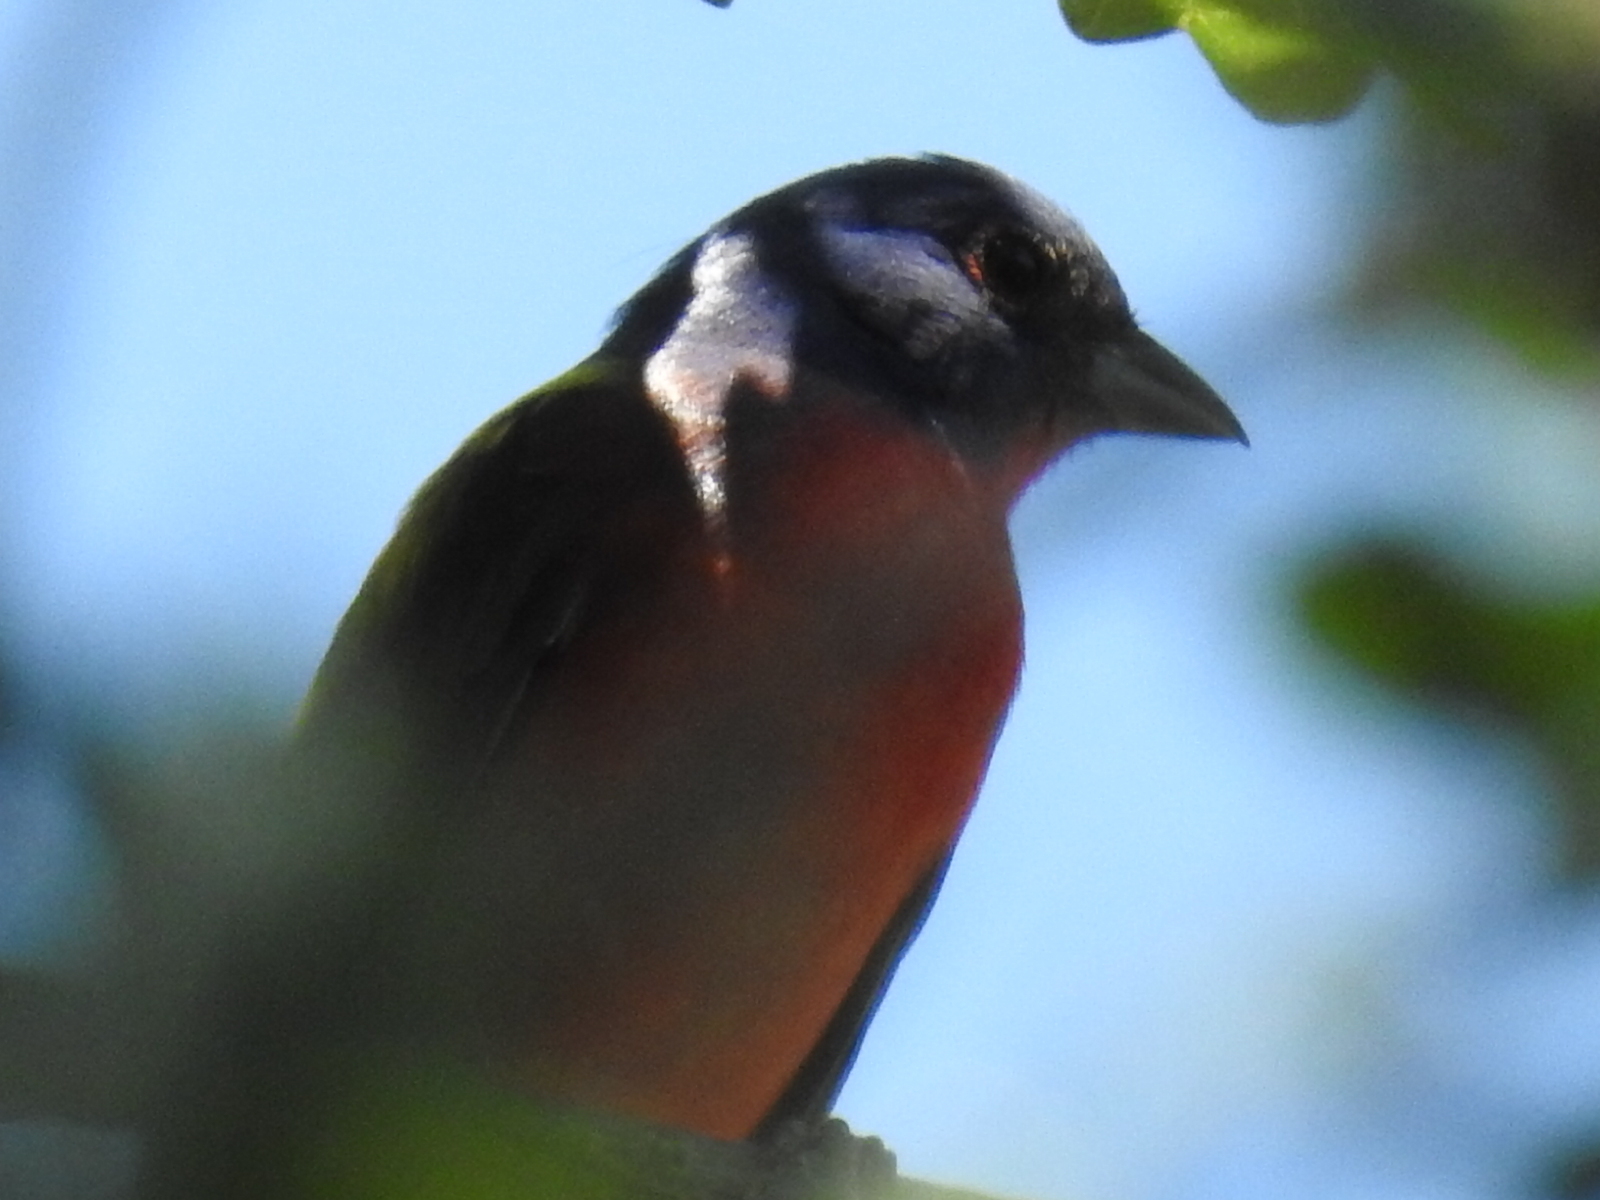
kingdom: Animalia
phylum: Chordata
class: Aves
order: Passeriformes
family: Cardinalidae
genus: Passerina
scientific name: Passerina ciris
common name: Painted bunting
